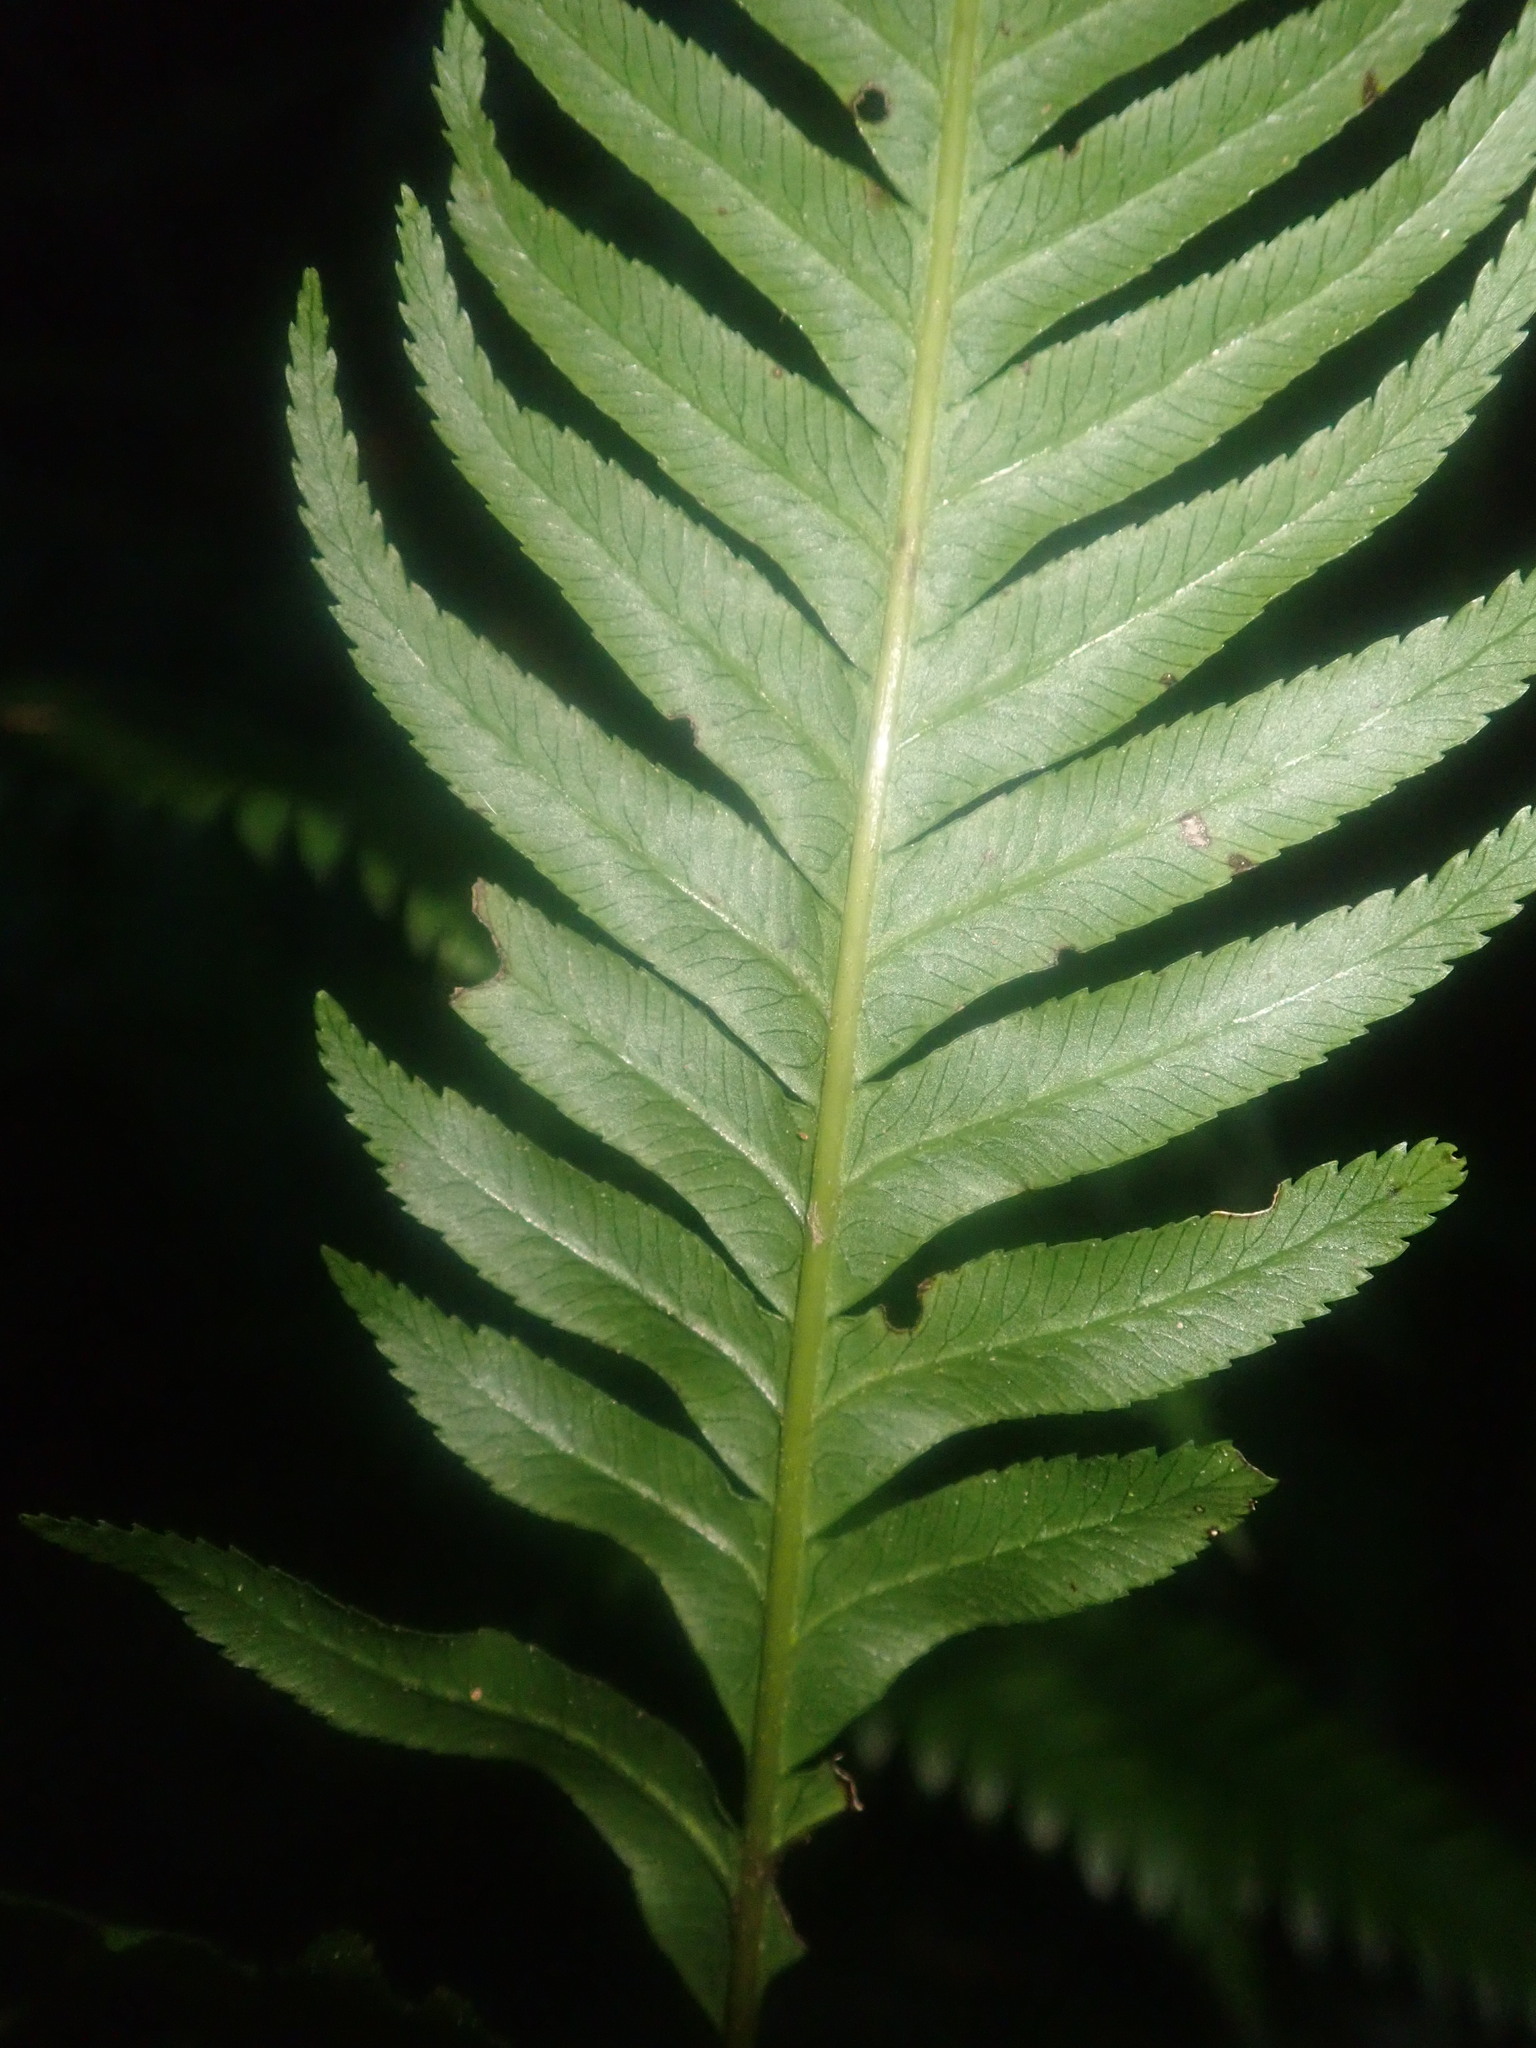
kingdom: Plantae
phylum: Tracheophyta
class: Polypodiopsida
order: Polypodiales
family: Blechnaceae
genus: Woodwardia
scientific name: Woodwardia radicans
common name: Rooting chainfern
